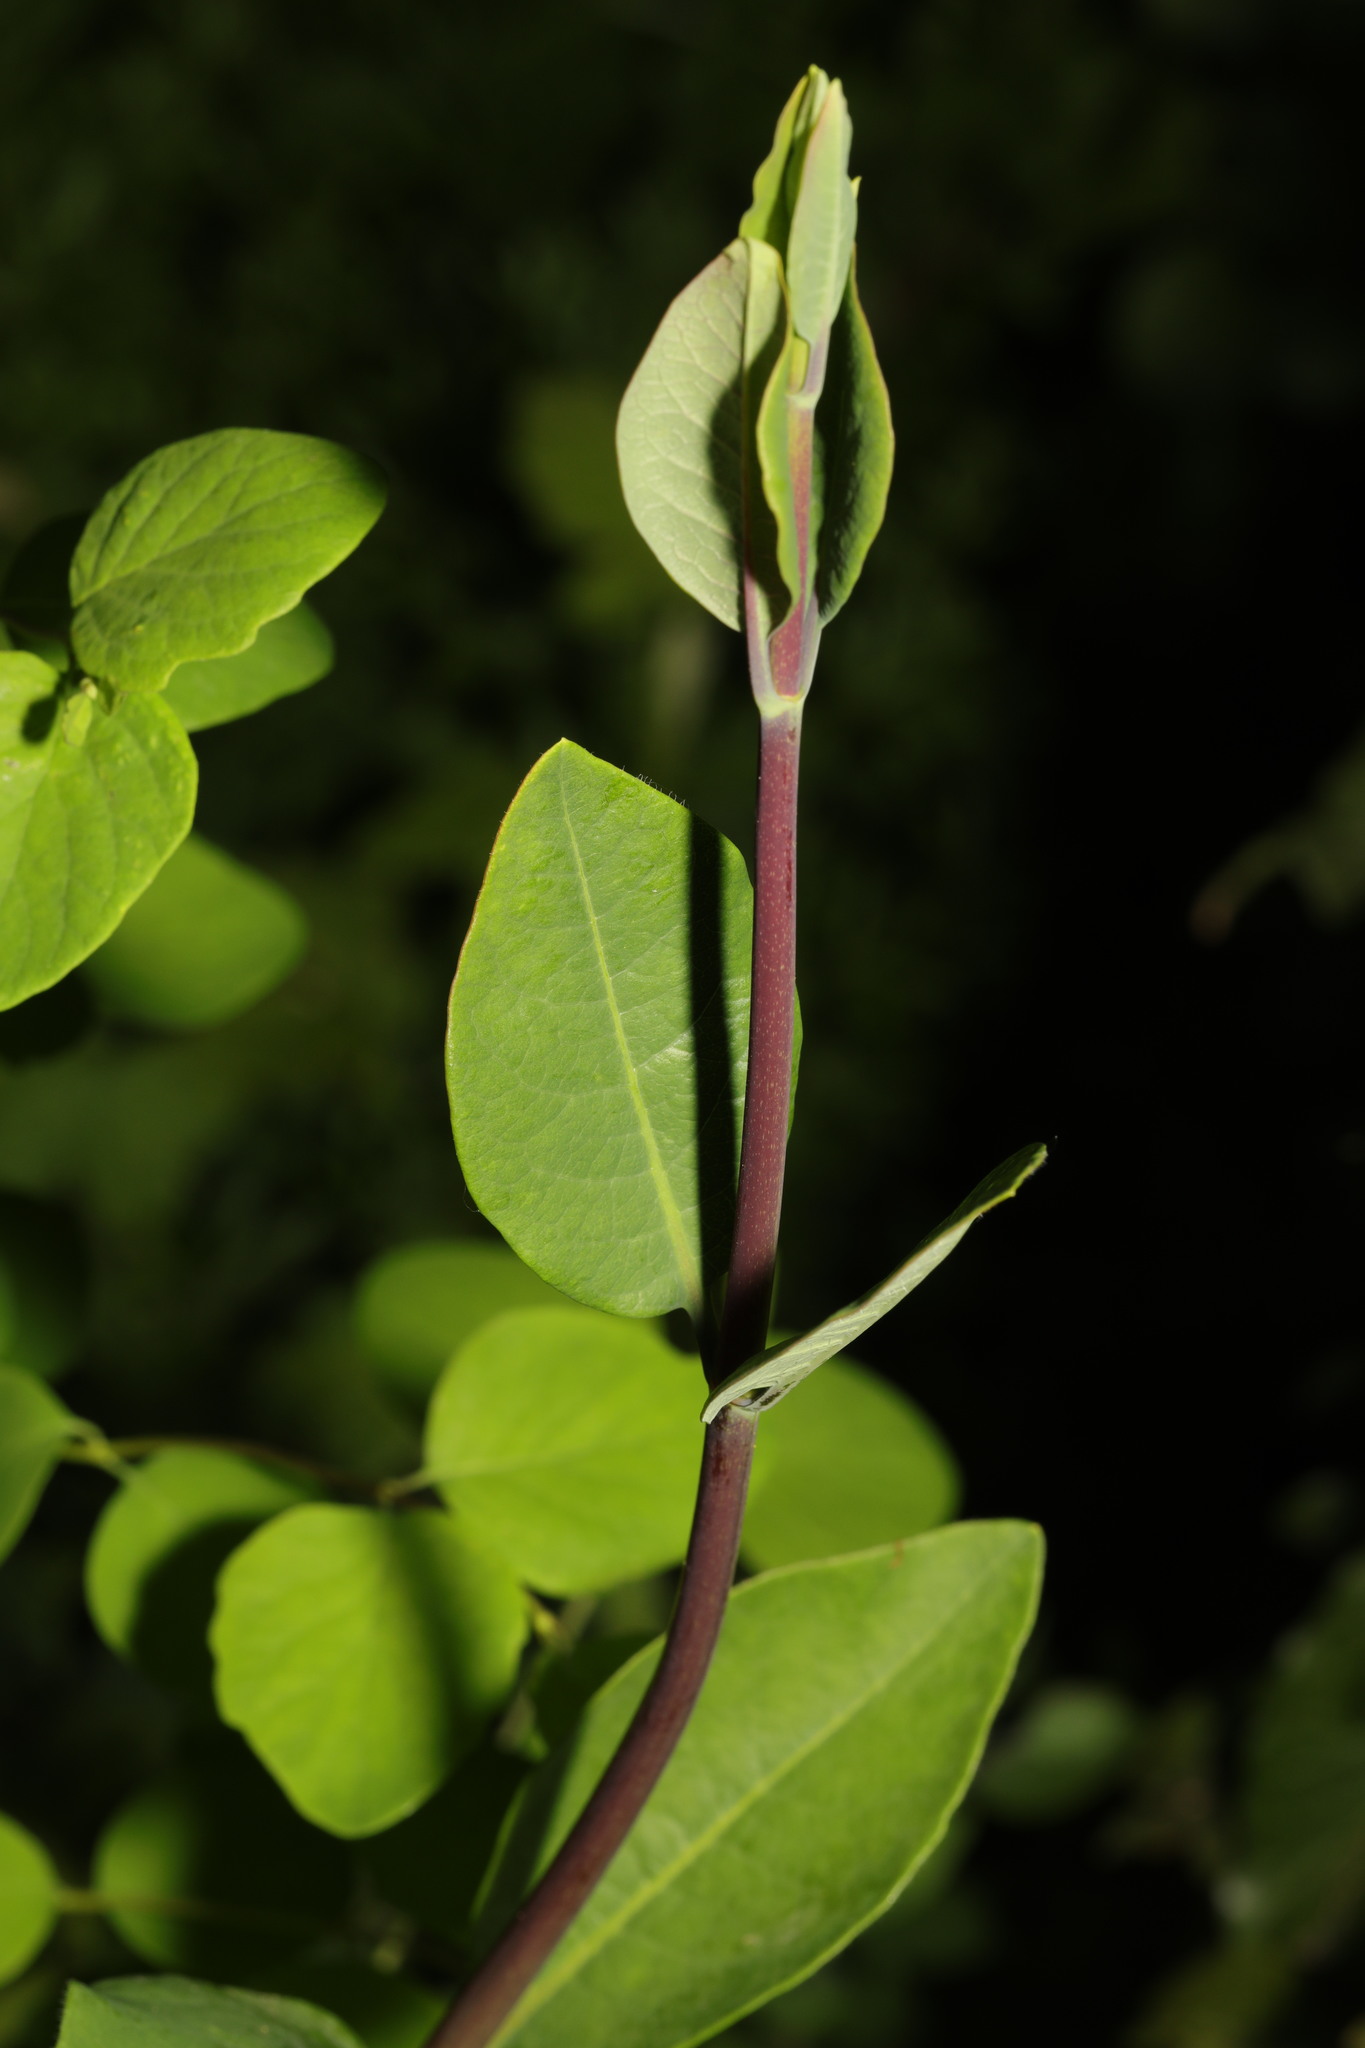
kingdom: Plantae
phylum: Tracheophyta
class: Magnoliopsida
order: Dipsacales
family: Caprifoliaceae
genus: Lonicera
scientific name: Lonicera periclymenum
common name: European honeysuckle
